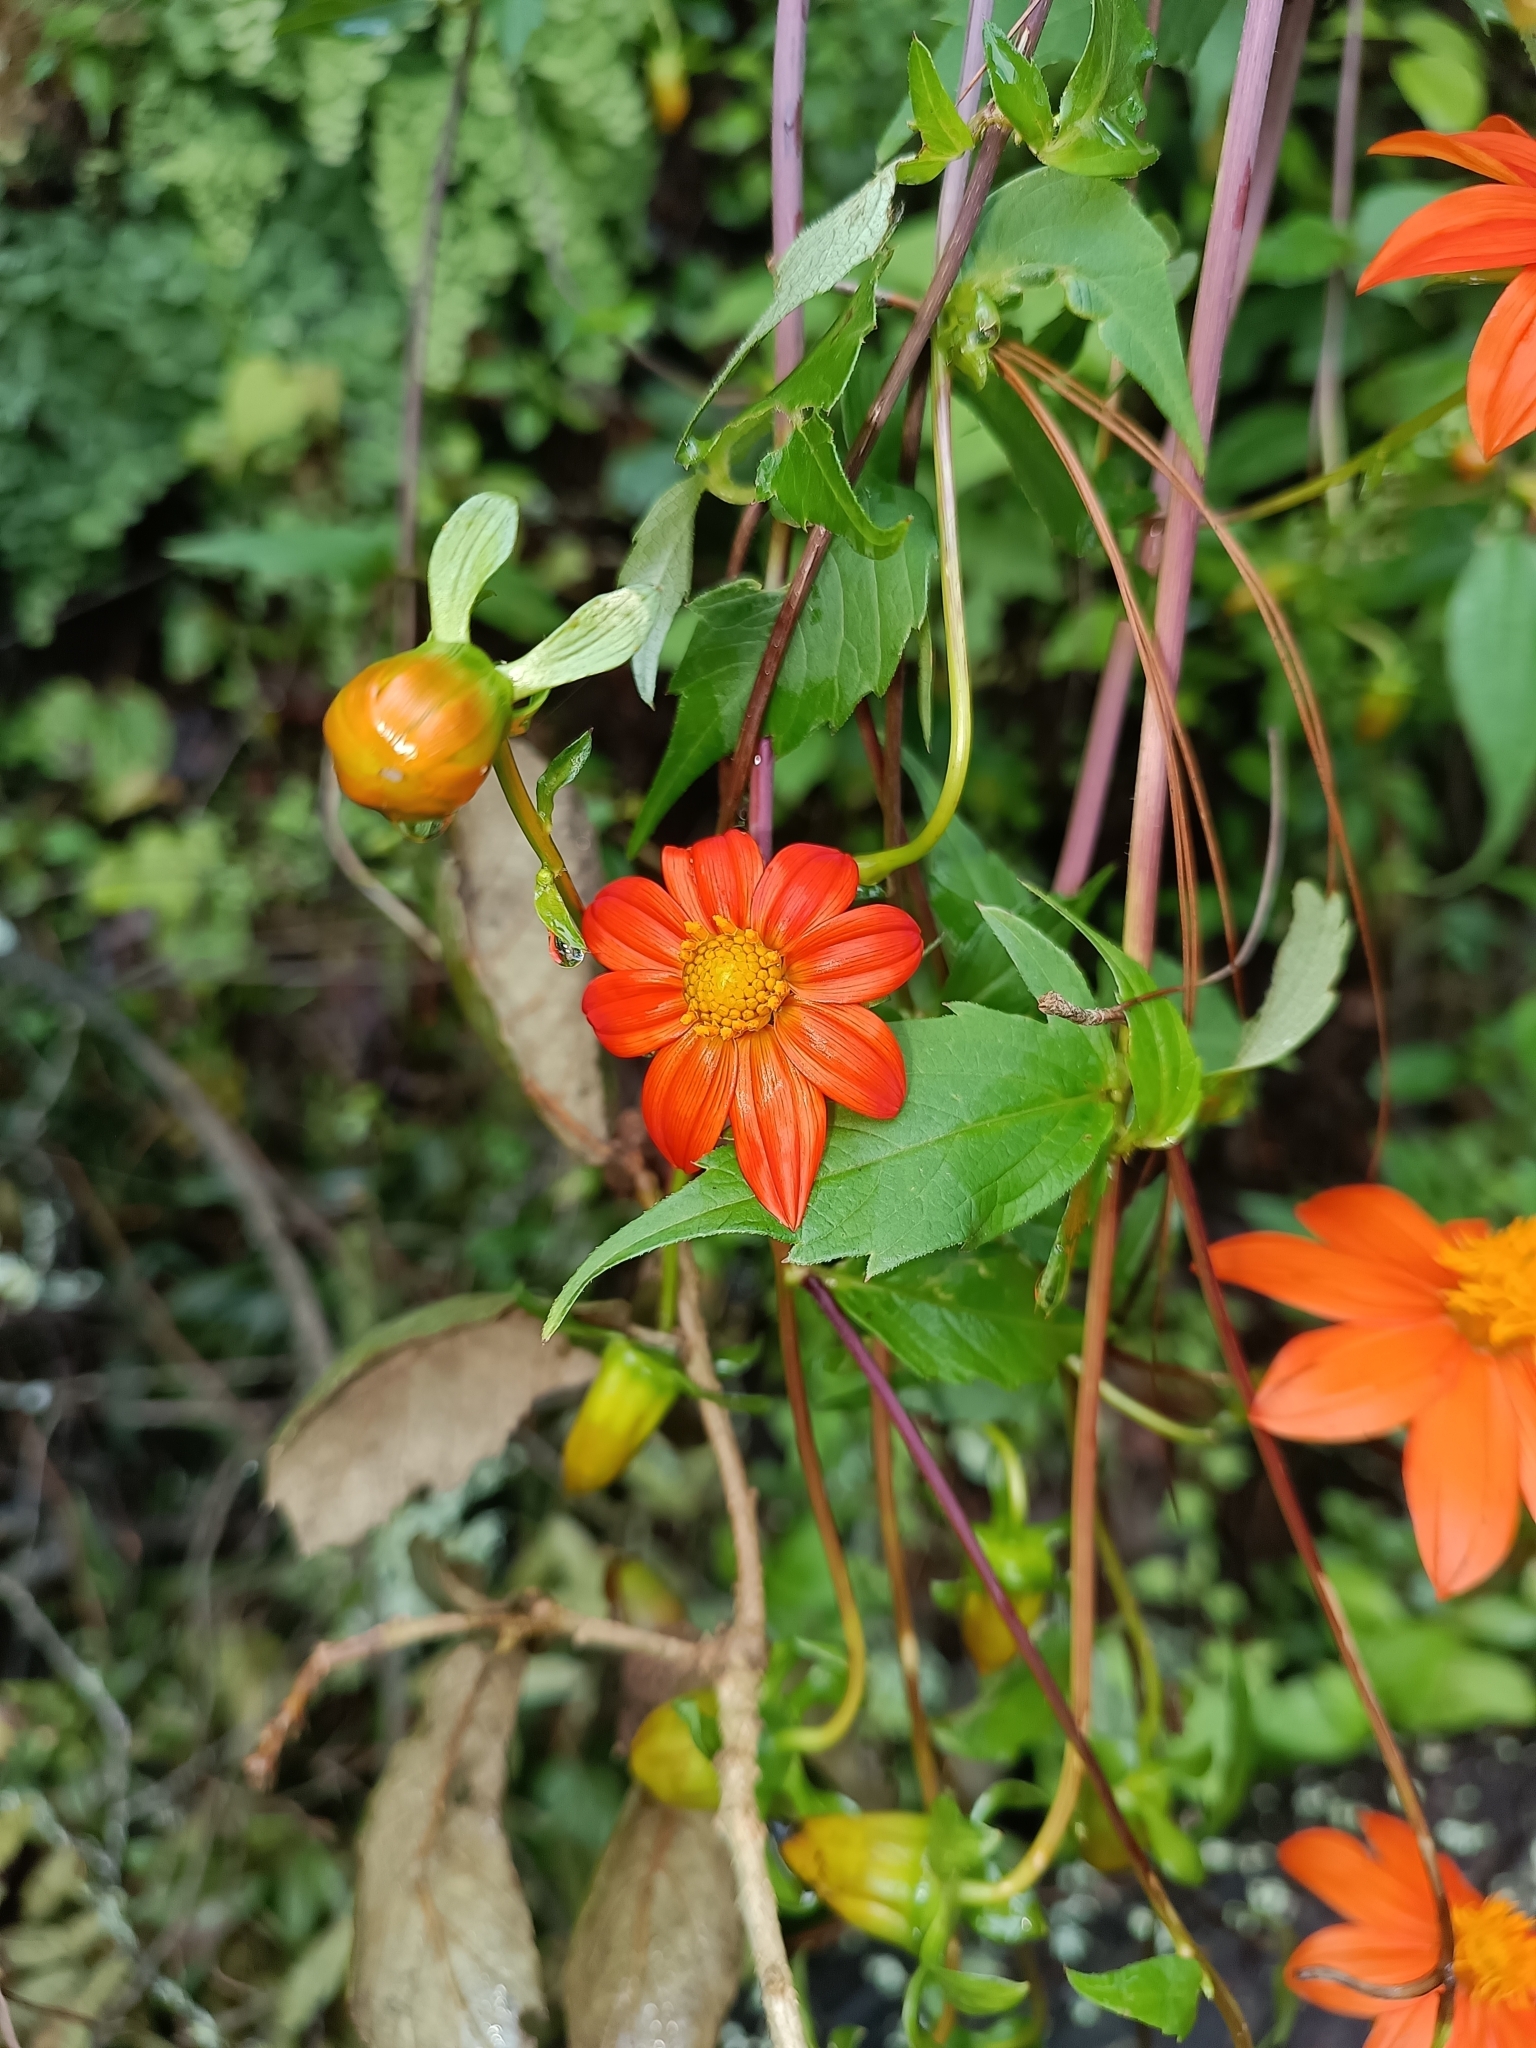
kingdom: Plantae
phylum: Tracheophyta
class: Magnoliopsida
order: Asterales
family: Asteraceae
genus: Dahlia
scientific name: Dahlia coccinea
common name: Red dahlia
